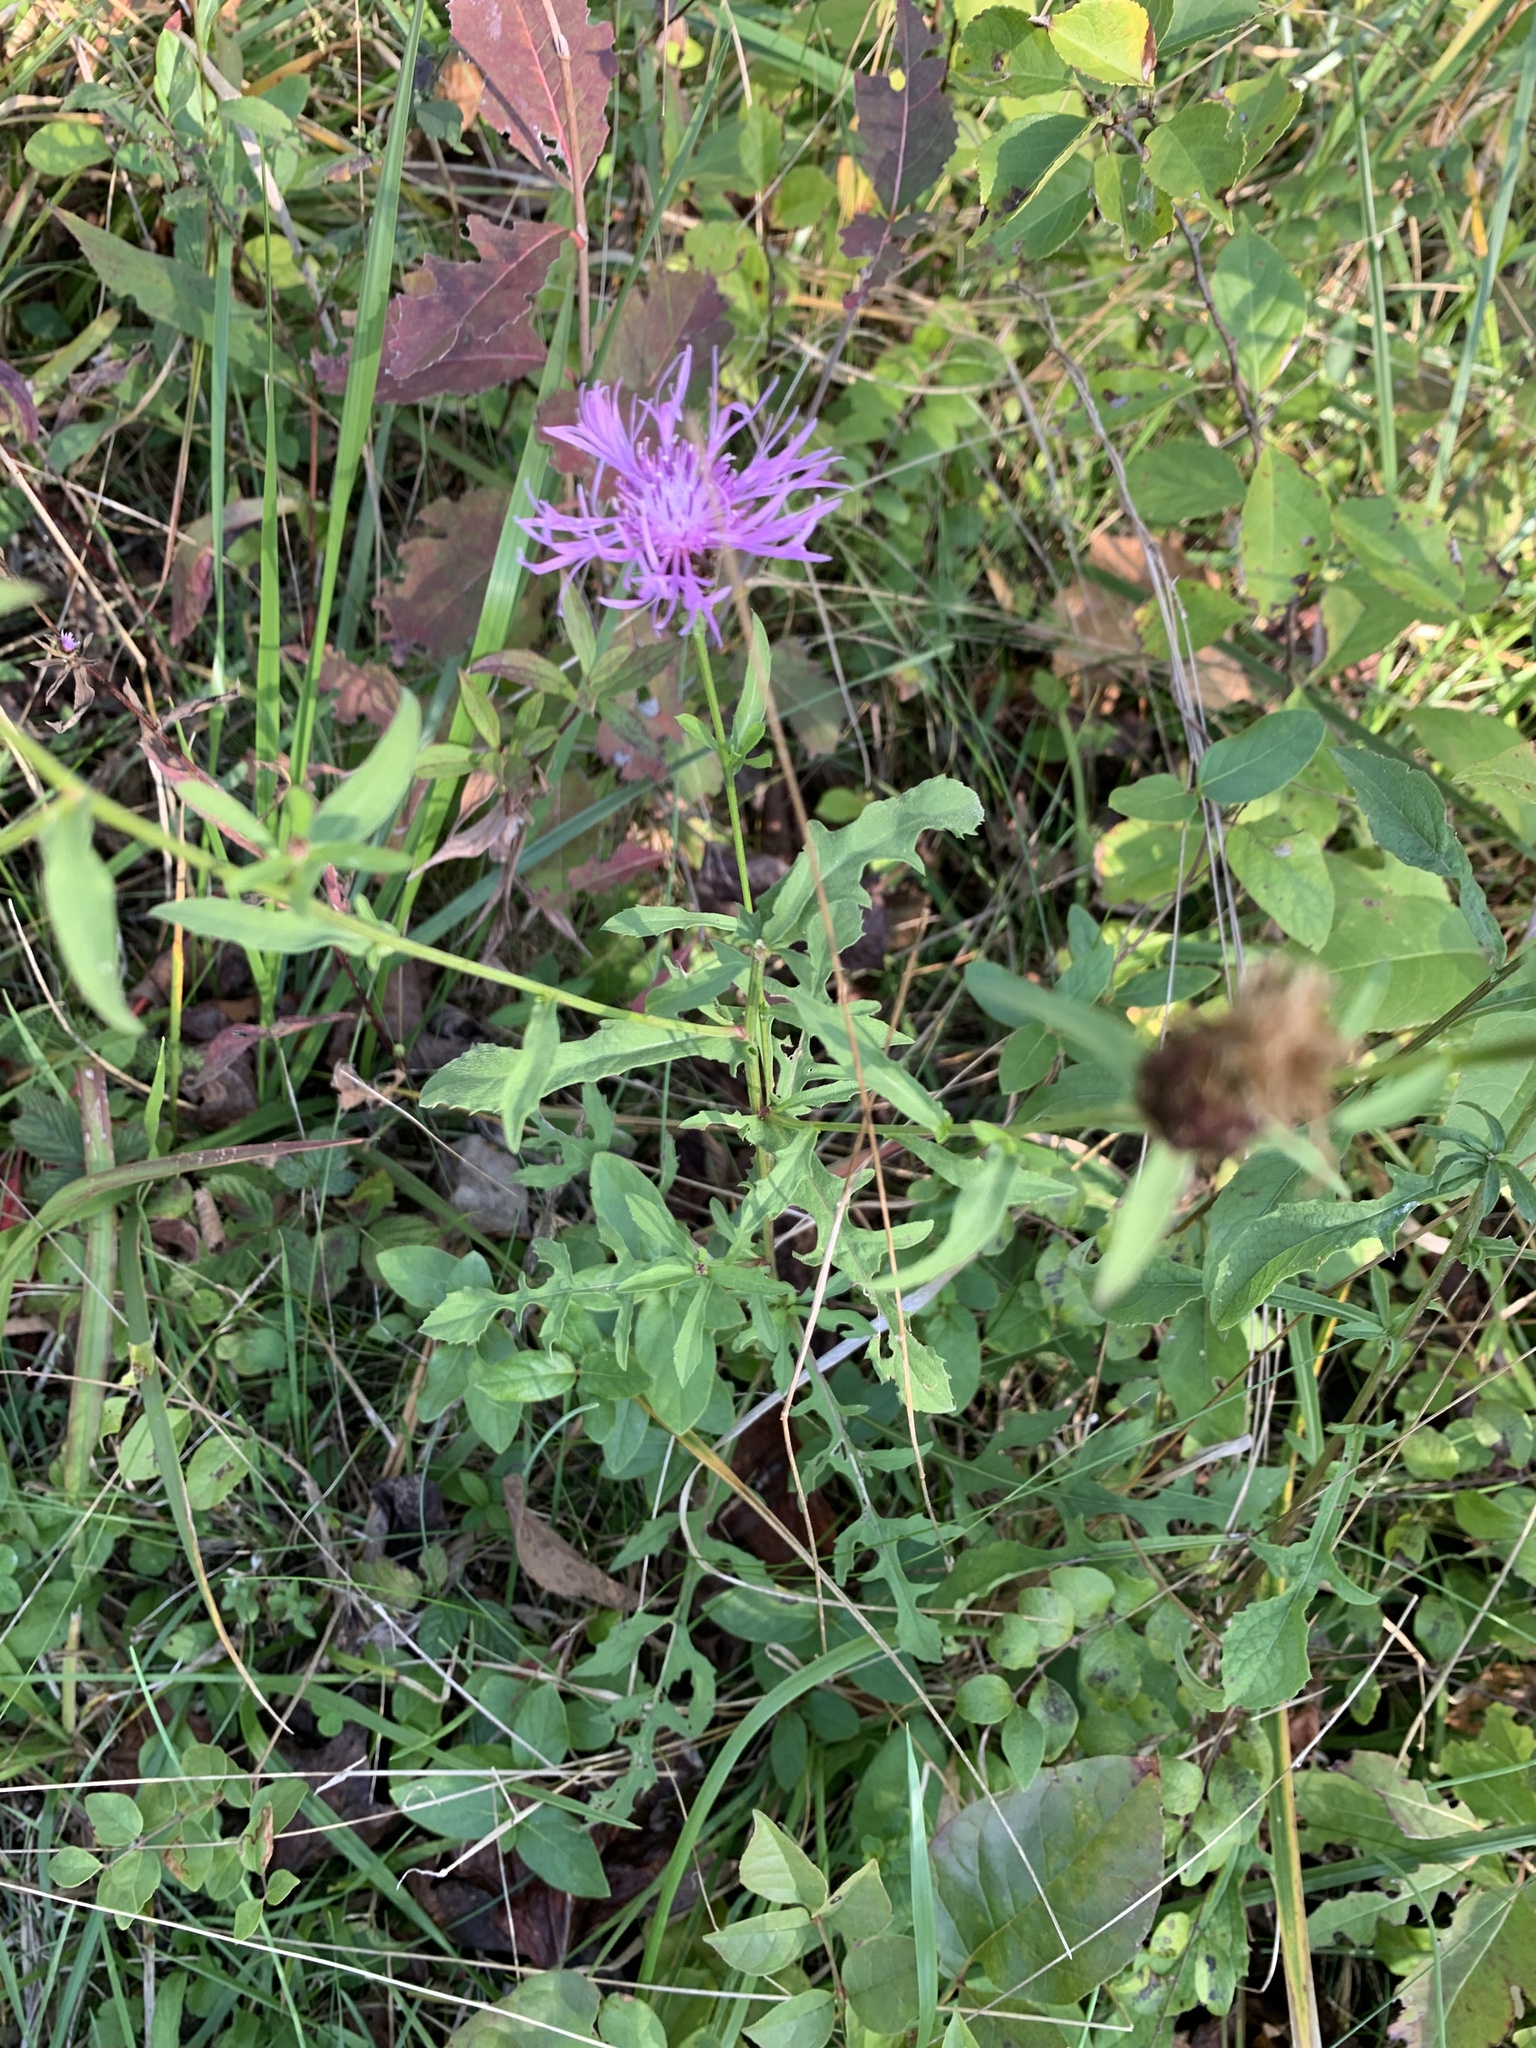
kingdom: Plantae
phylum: Tracheophyta
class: Magnoliopsida
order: Asterales
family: Asteraceae
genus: Centaurea
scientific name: Centaurea stoebe
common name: Spotted knapweed
